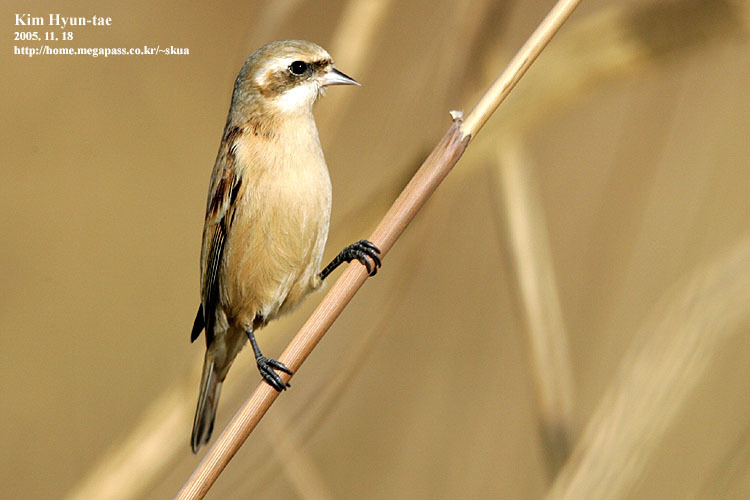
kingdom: Animalia
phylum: Chordata
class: Aves
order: Passeriformes
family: Remizidae
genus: Remiz
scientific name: Remiz consobrinus
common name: Chinese penduline tit
